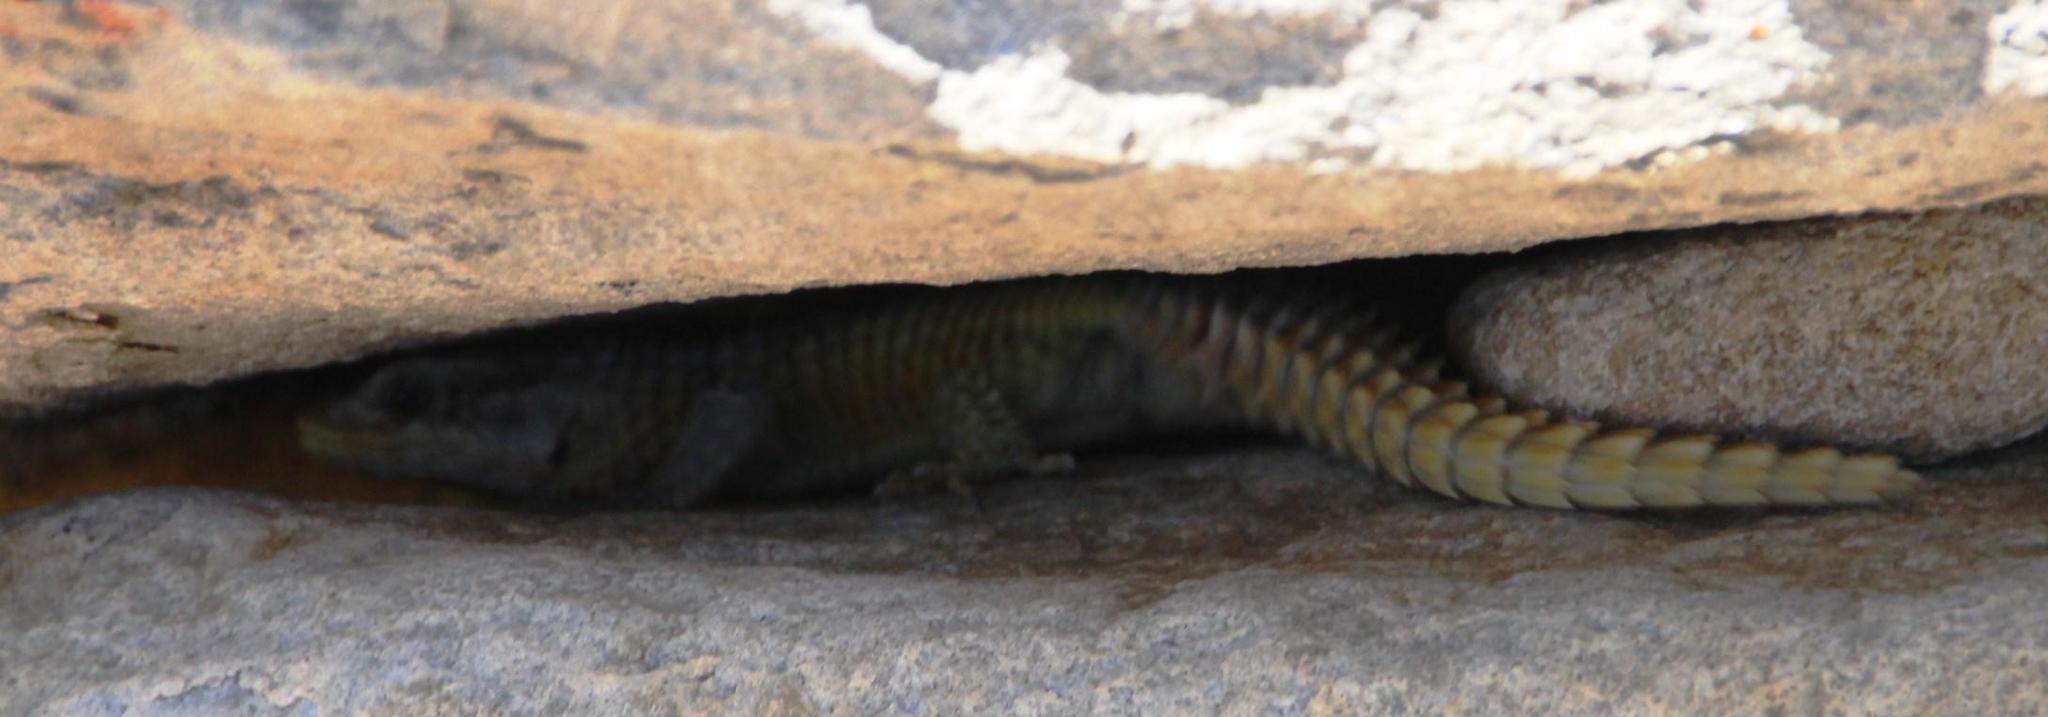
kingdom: Animalia
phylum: Chordata
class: Squamata
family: Cordylidae
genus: Cordylus
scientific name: Cordylus cordylus
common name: Cape girdled lizard
